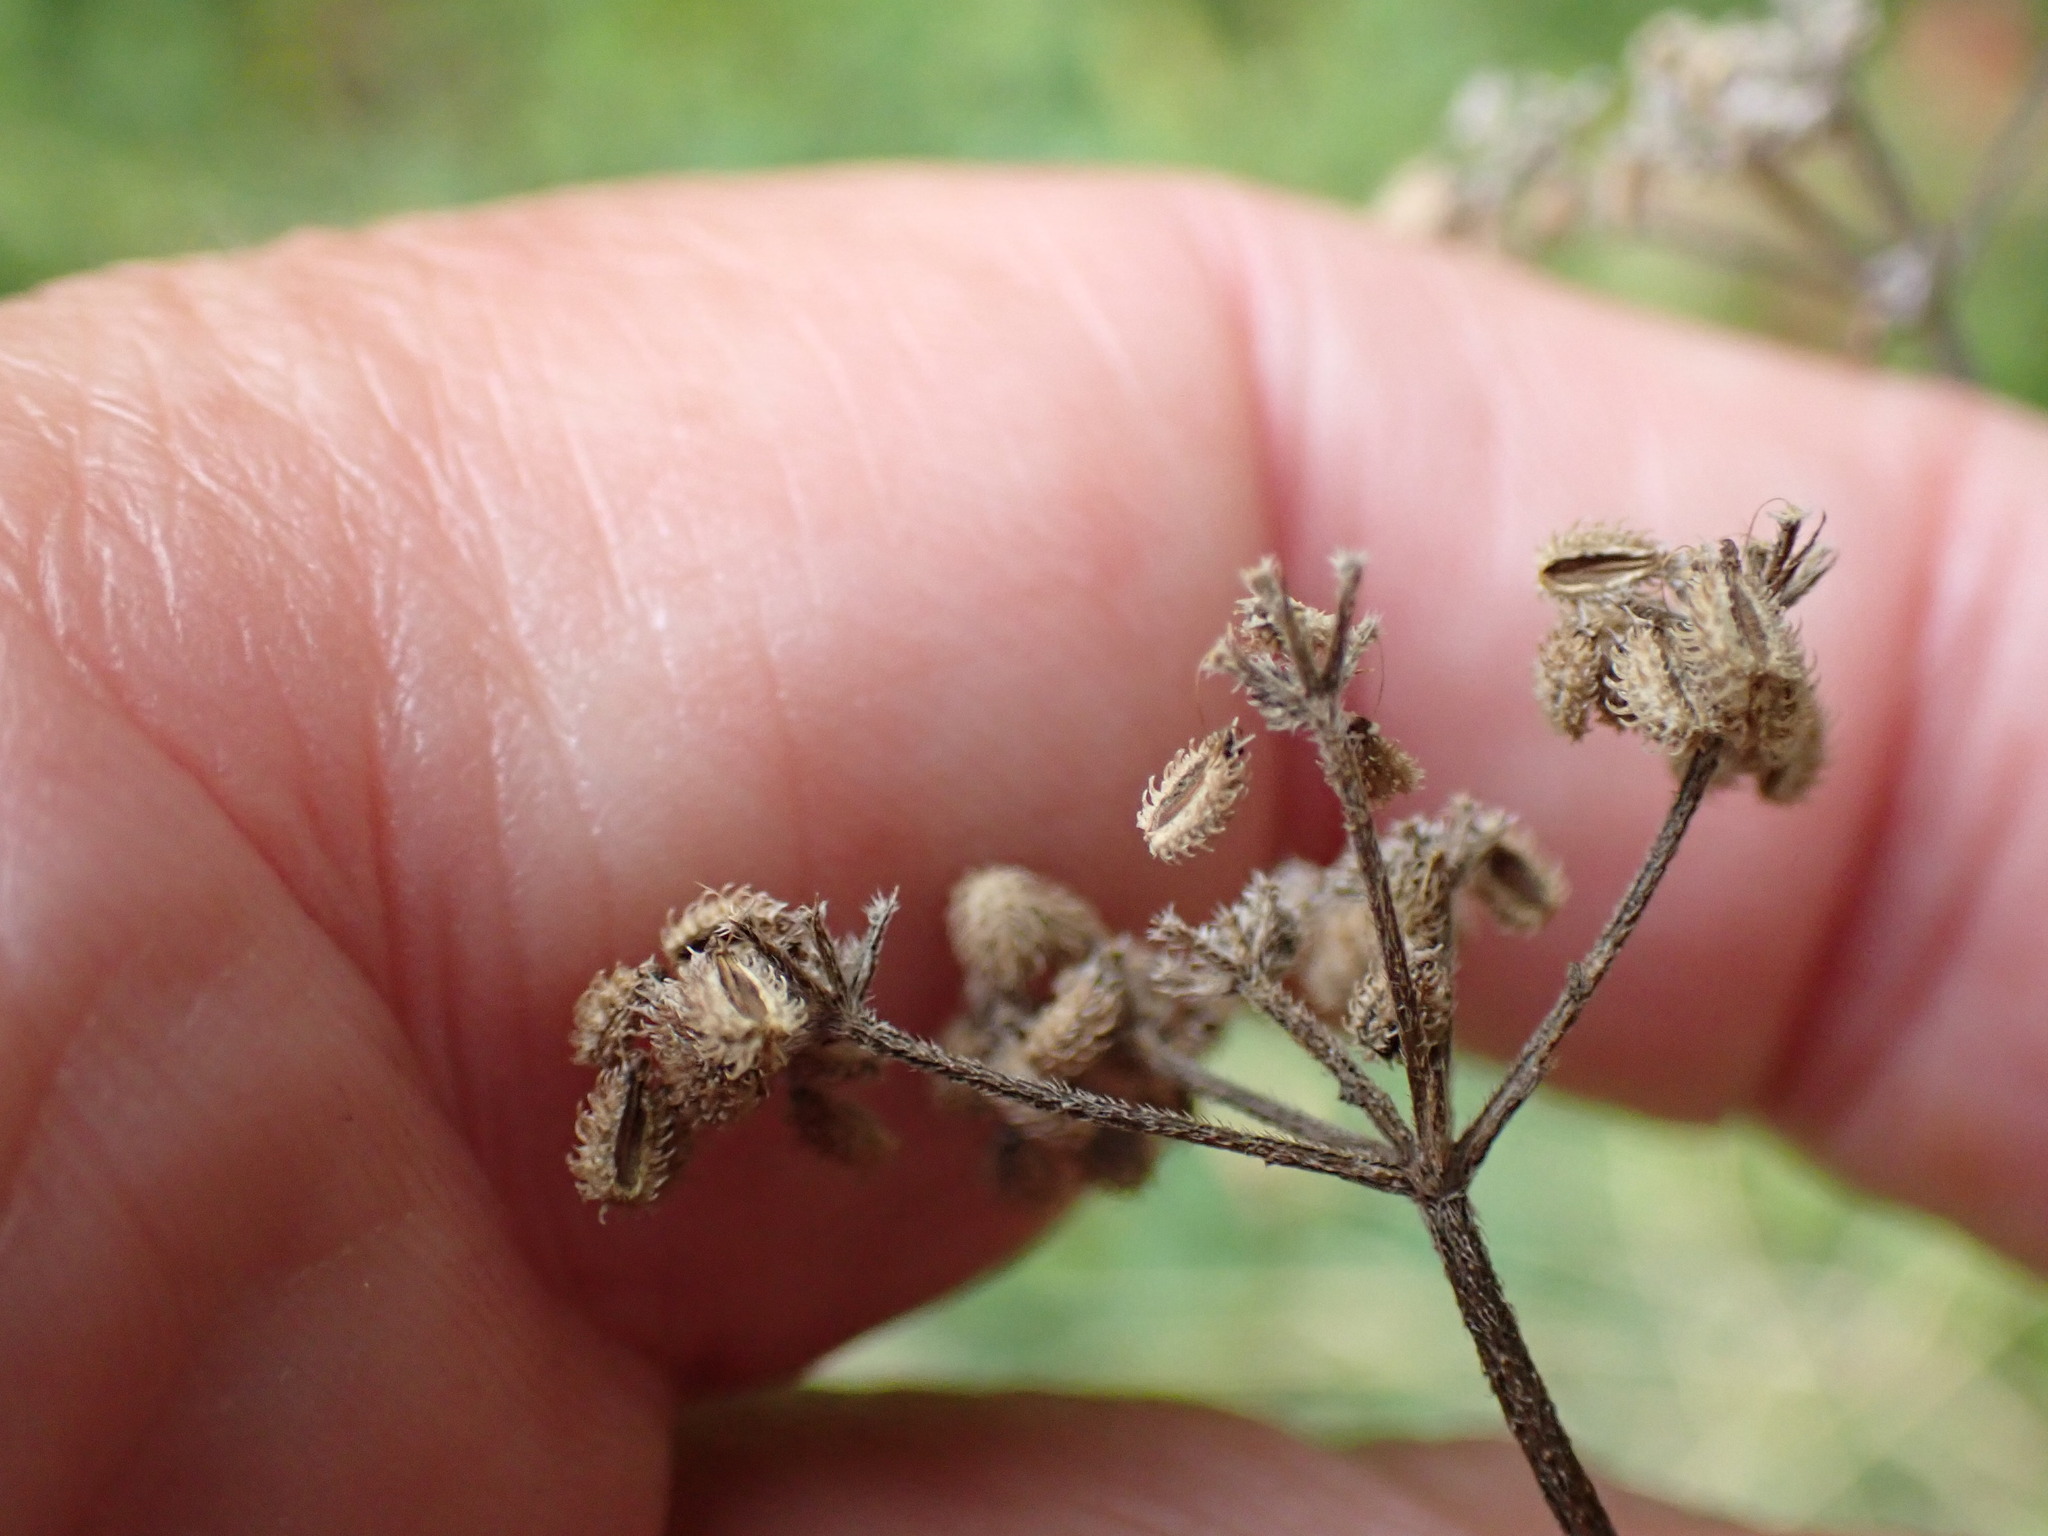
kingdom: Plantae
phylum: Tracheophyta
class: Magnoliopsida
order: Apiales
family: Apiaceae
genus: Torilis
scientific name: Torilis japonica
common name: Upright hedge-parsley
